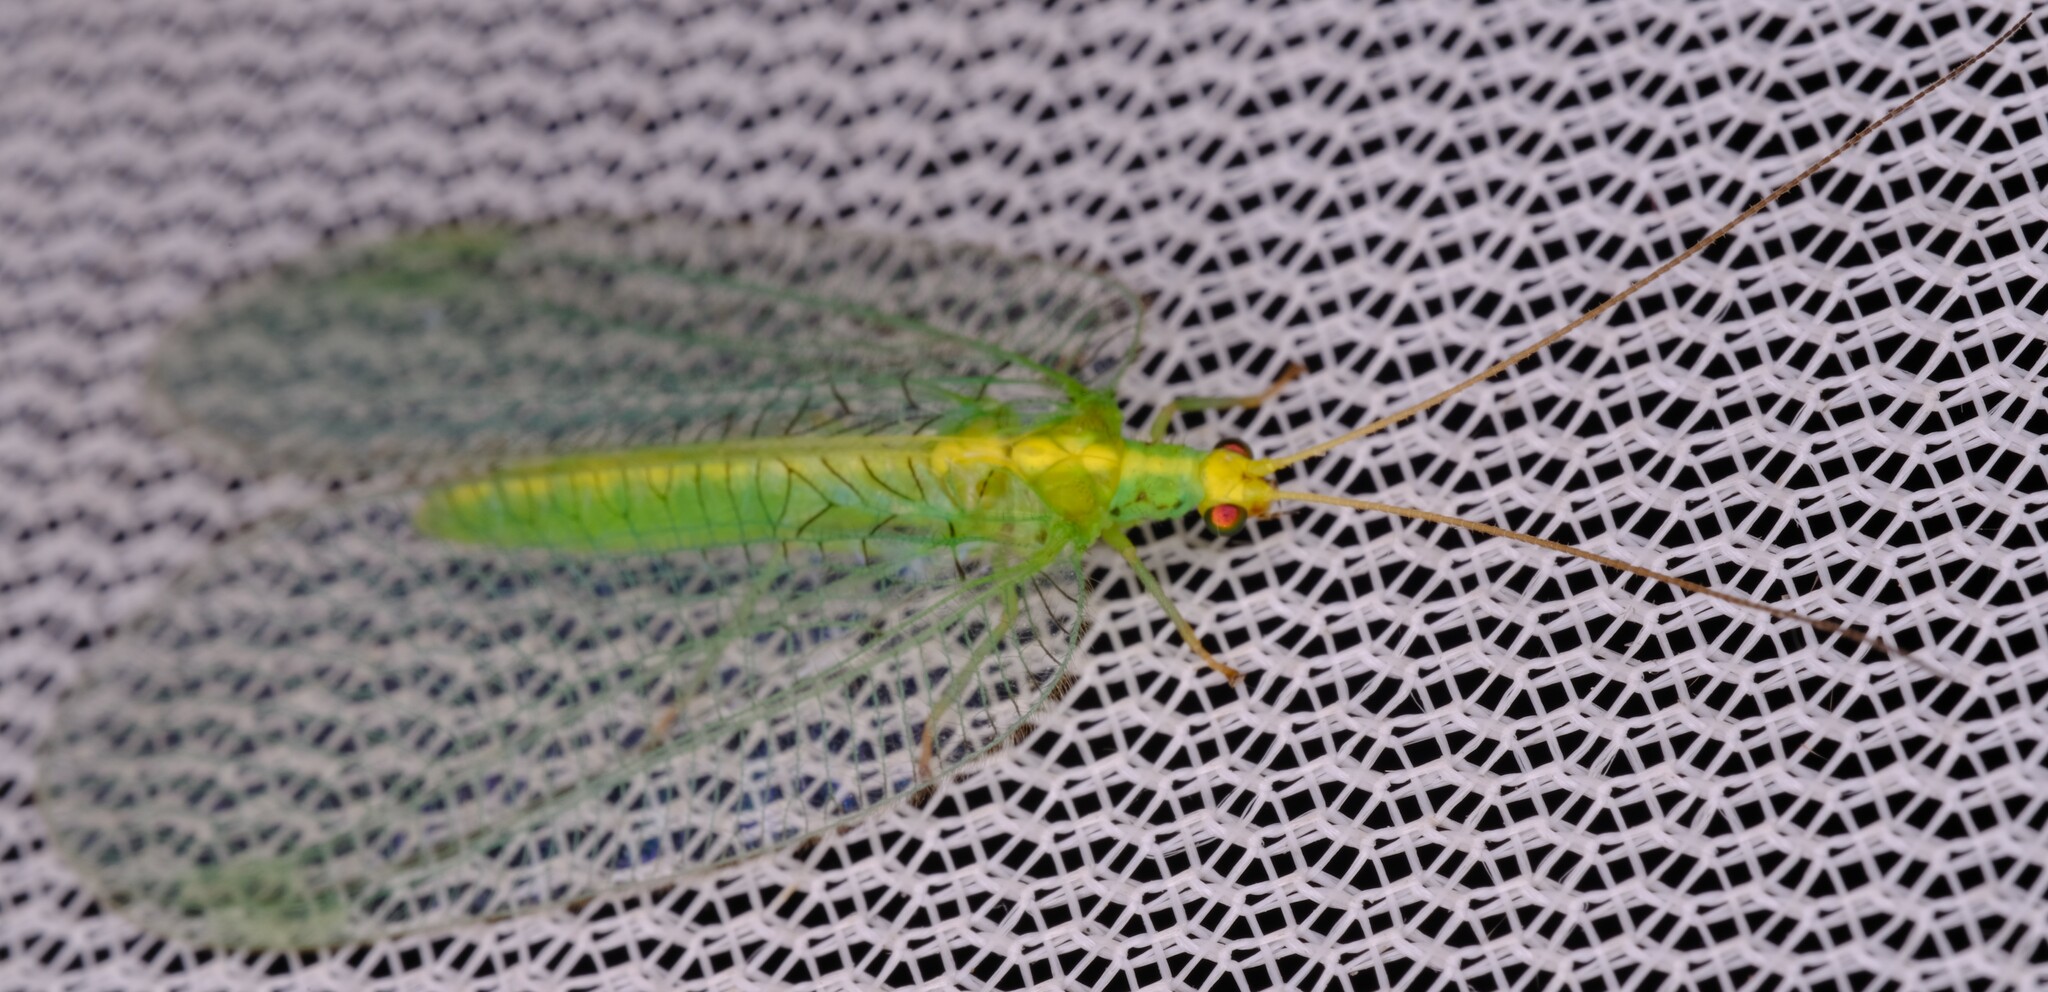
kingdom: Animalia
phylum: Arthropoda
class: Insecta
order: Neuroptera
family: Chrysopidae
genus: Nothancyla
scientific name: Nothancyla verreauxi
